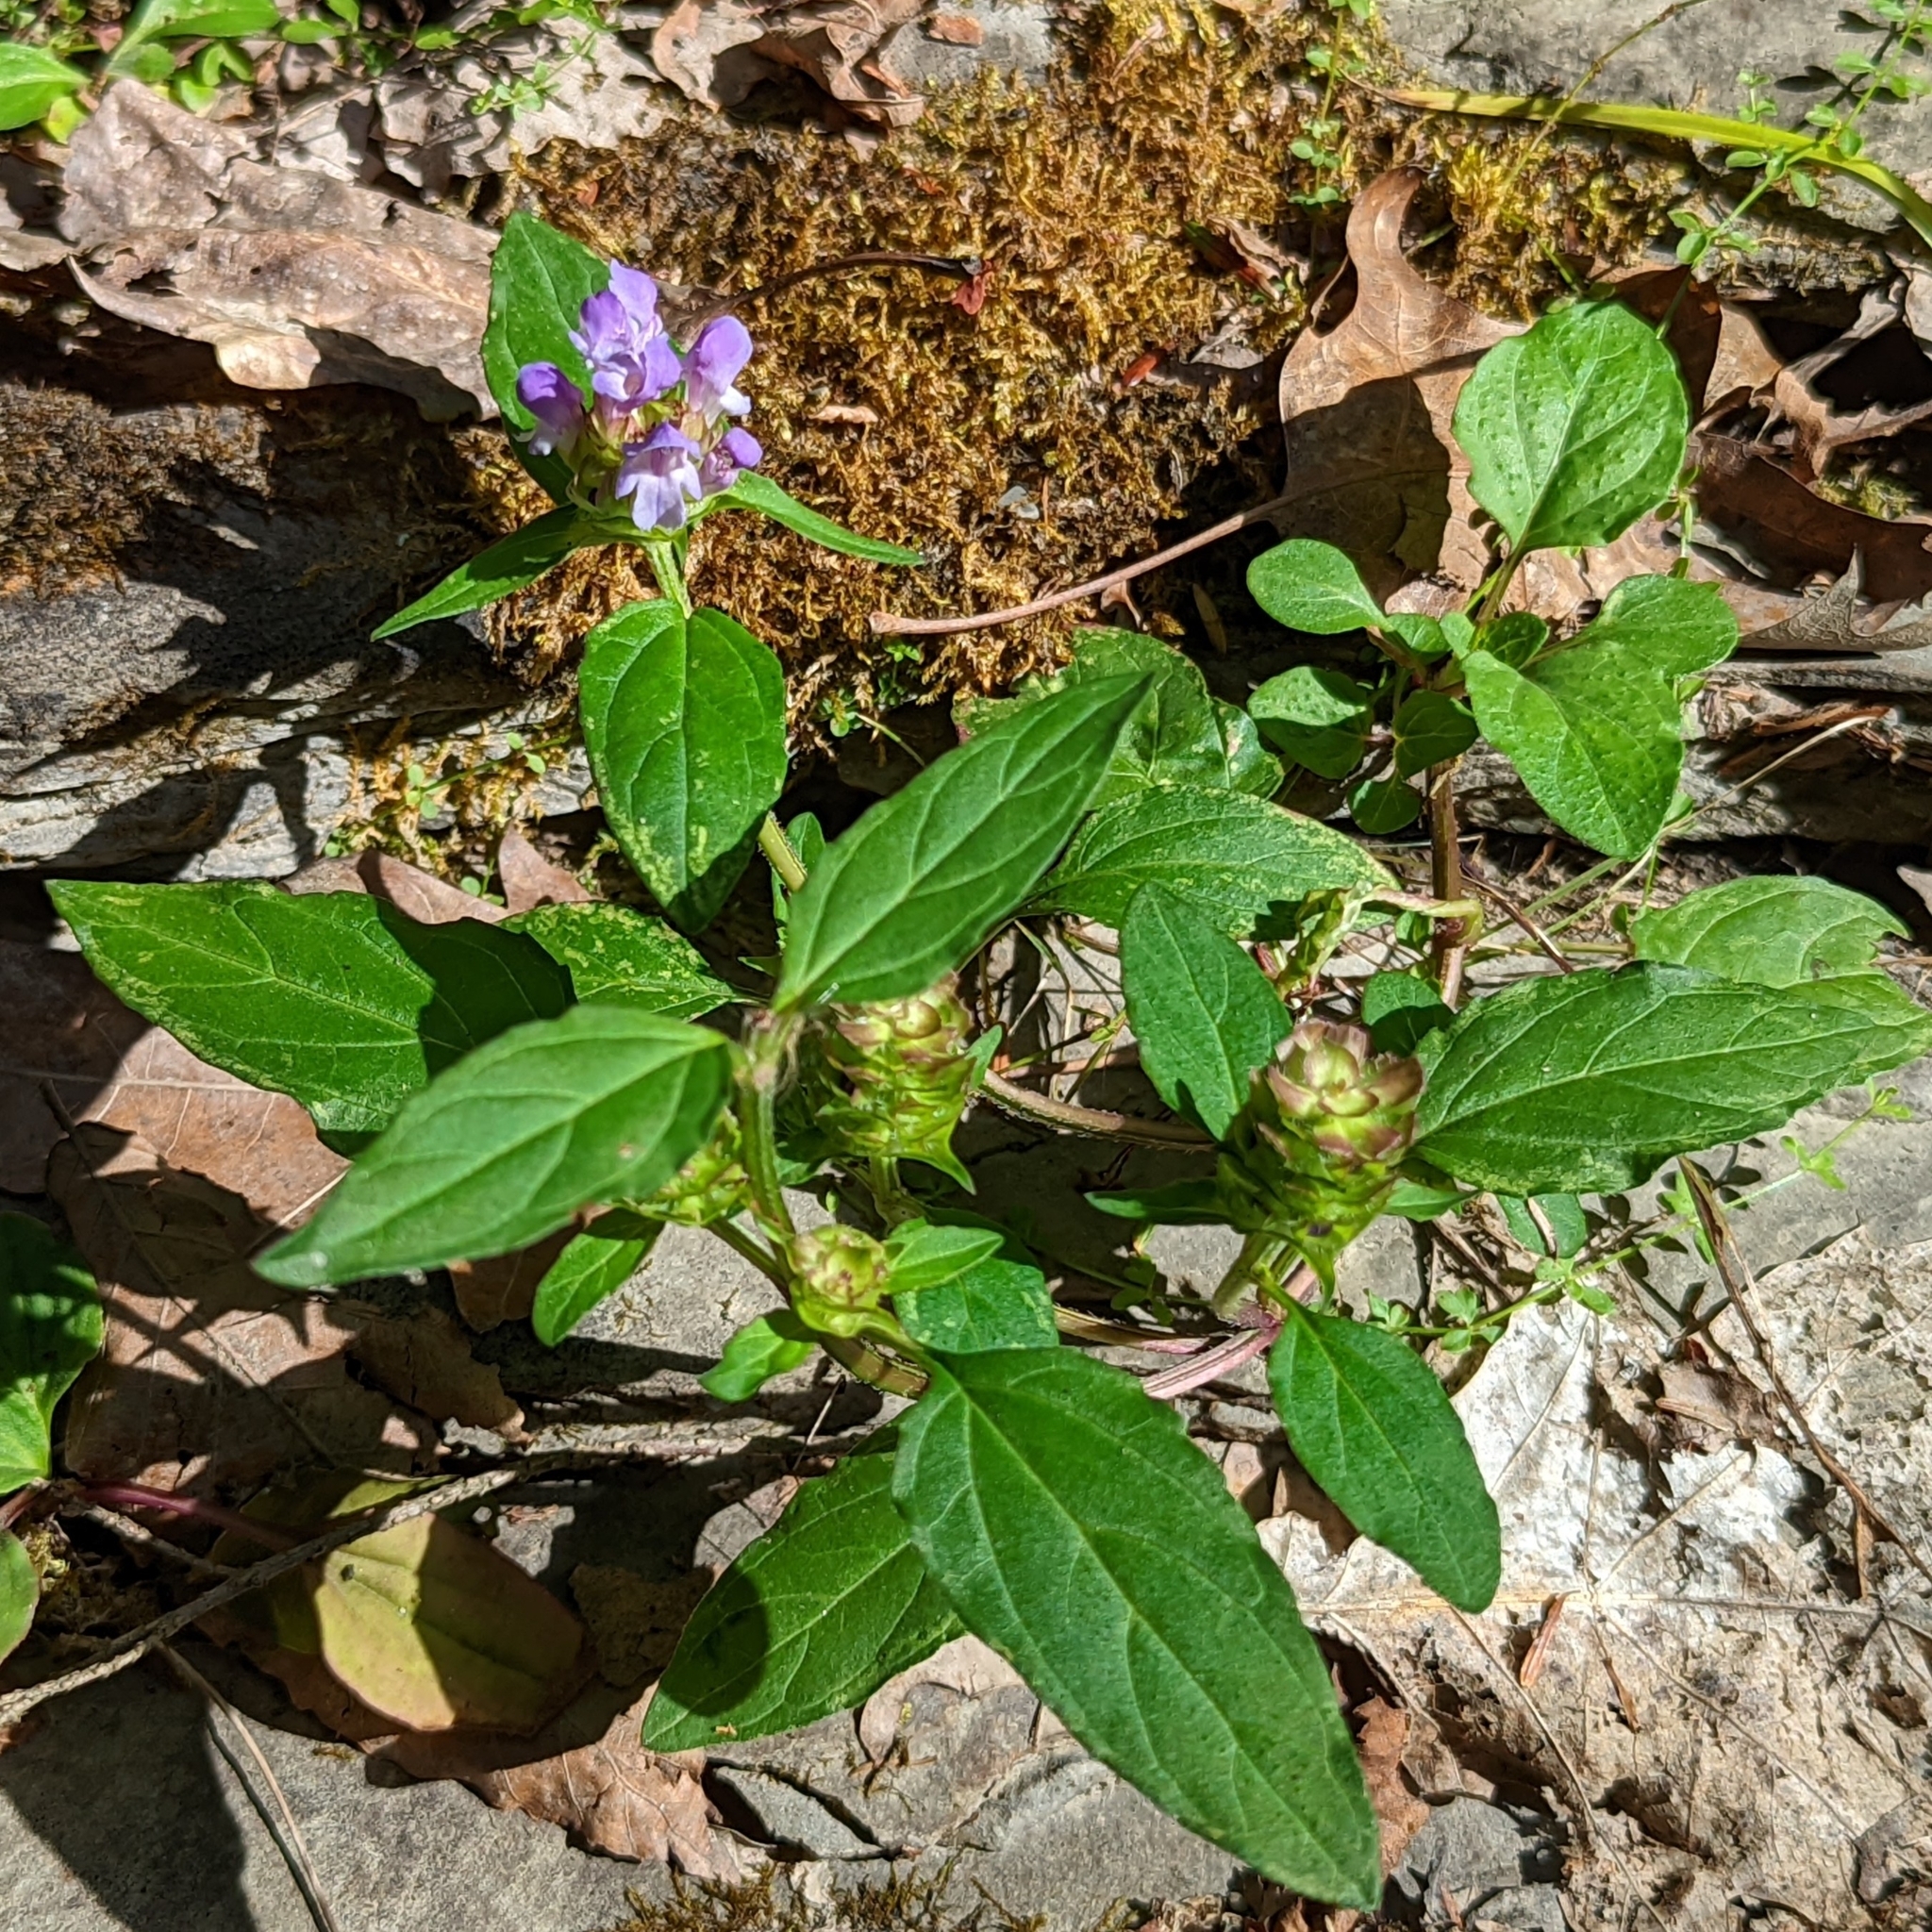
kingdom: Plantae
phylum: Tracheophyta
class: Magnoliopsida
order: Lamiales
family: Lamiaceae
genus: Prunella
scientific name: Prunella vulgaris
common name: Heal-all
